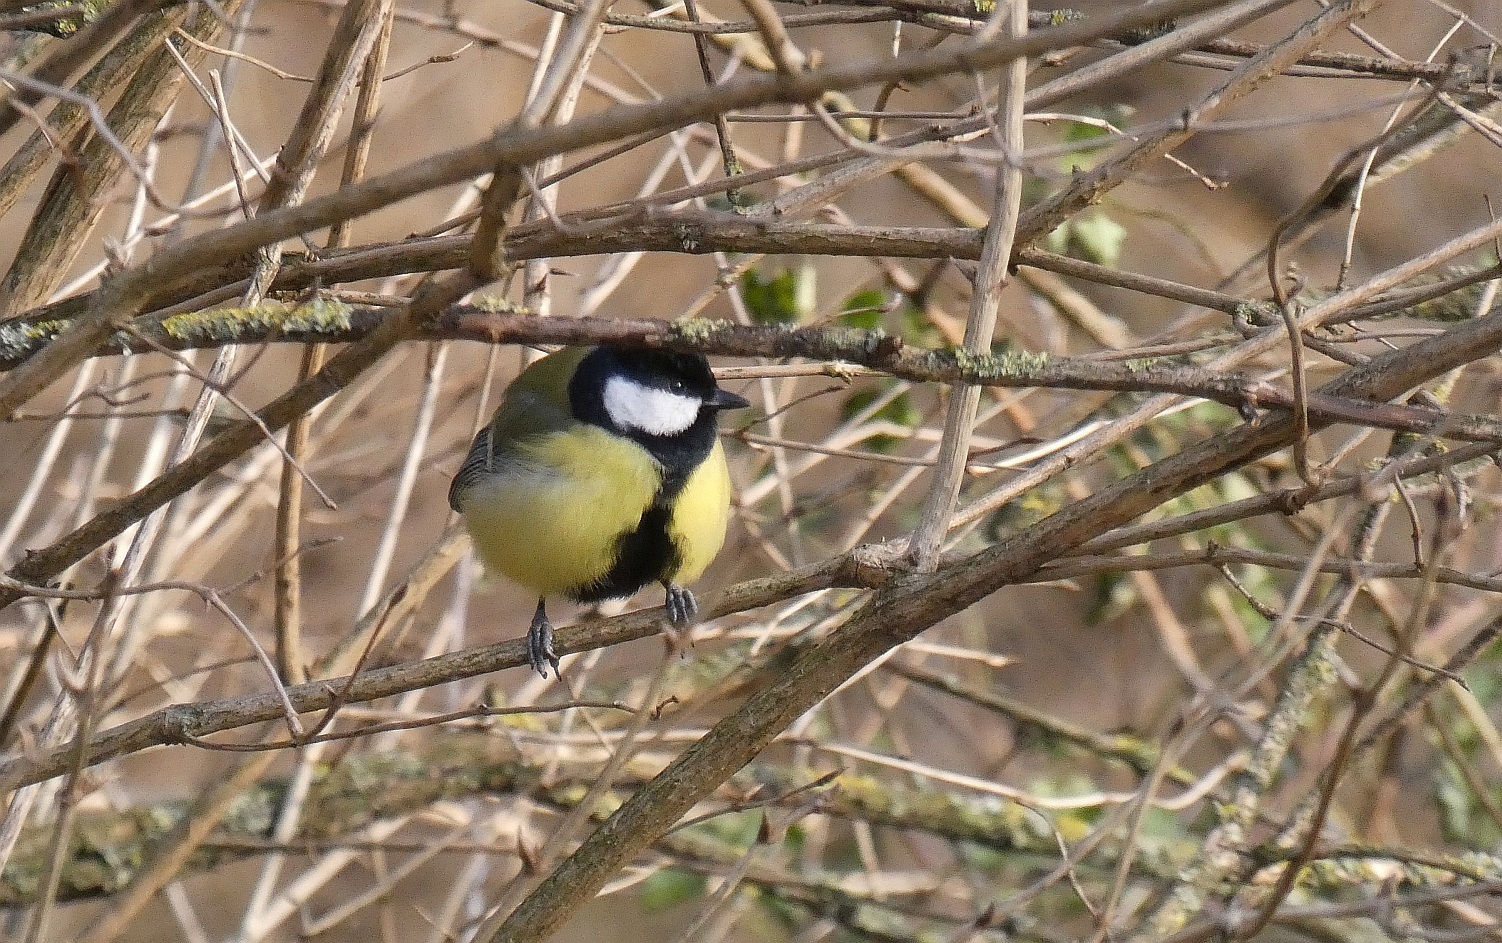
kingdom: Animalia
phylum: Chordata
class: Aves
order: Passeriformes
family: Paridae
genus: Parus
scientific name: Parus major
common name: Great tit
